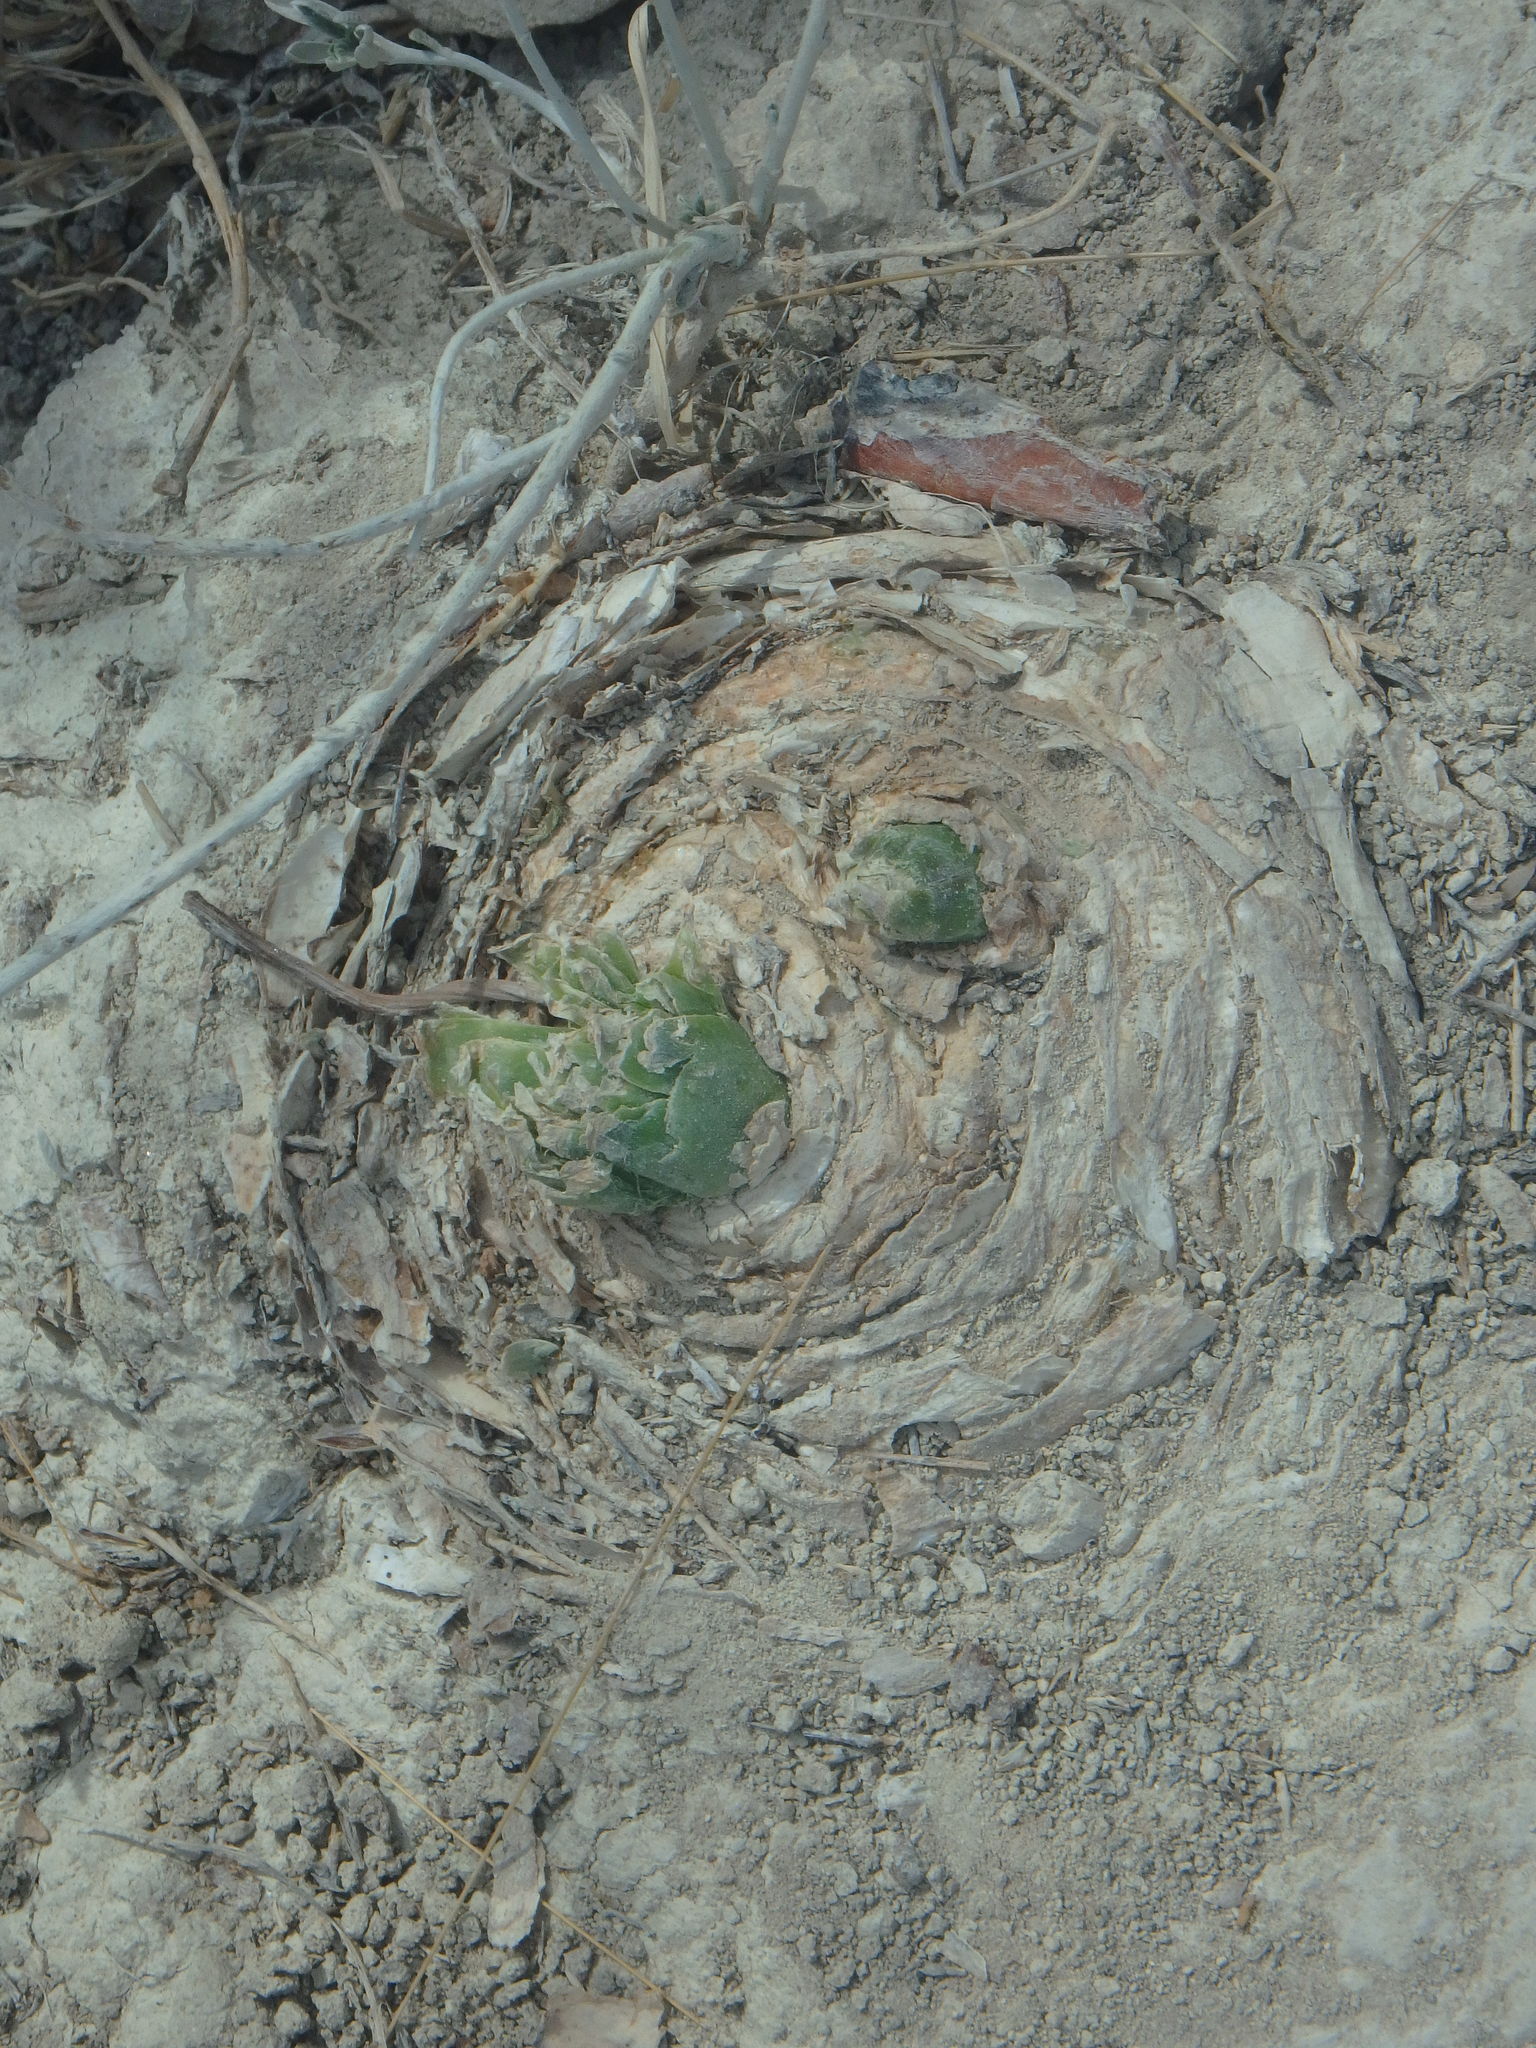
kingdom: Plantae
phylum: Tracheophyta
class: Liliopsida
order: Asparagales
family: Asparagaceae
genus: Drimia
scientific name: Drimia aphylla
